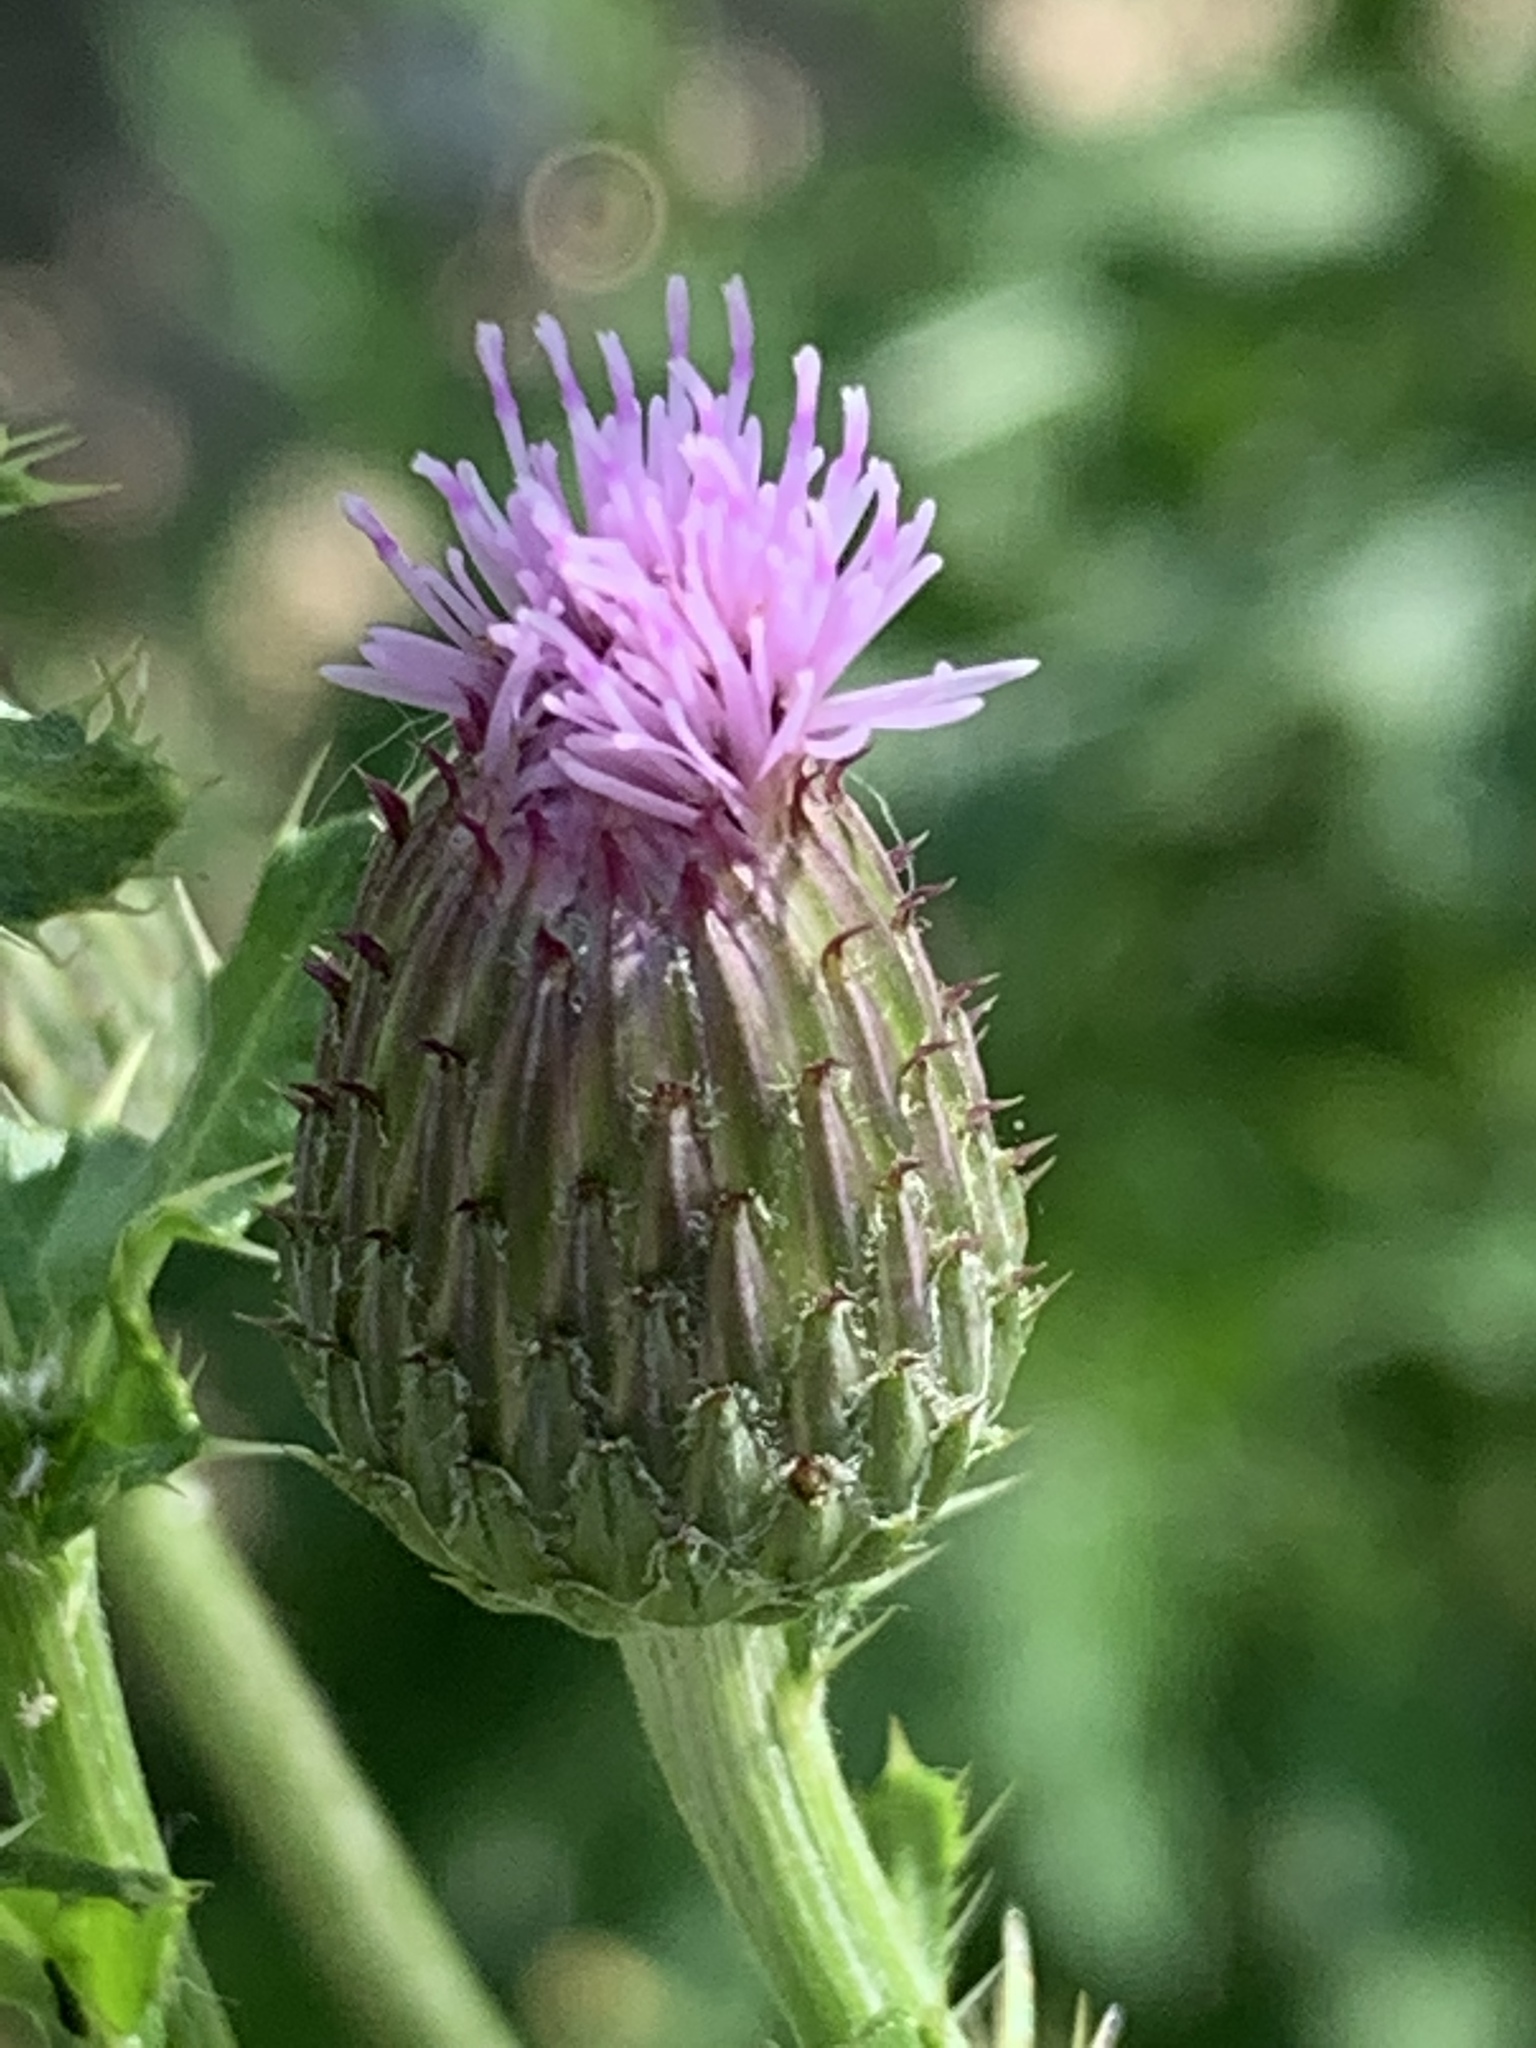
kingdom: Plantae
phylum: Tracheophyta
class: Magnoliopsida
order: Asterales
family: Asteraceae
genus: Cirsium
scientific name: Cirsium arvense
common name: Creeping thistle
